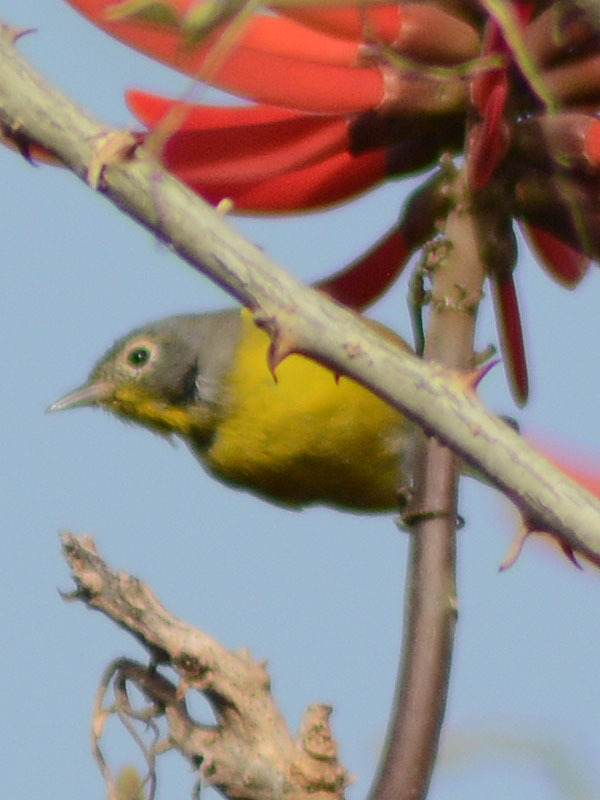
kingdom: Animalia
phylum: Chordata
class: Aves
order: Passeriformes
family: Parulidae
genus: Leiothlypis
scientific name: Leiothlypis ruficapilla
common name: Nashville warbler
